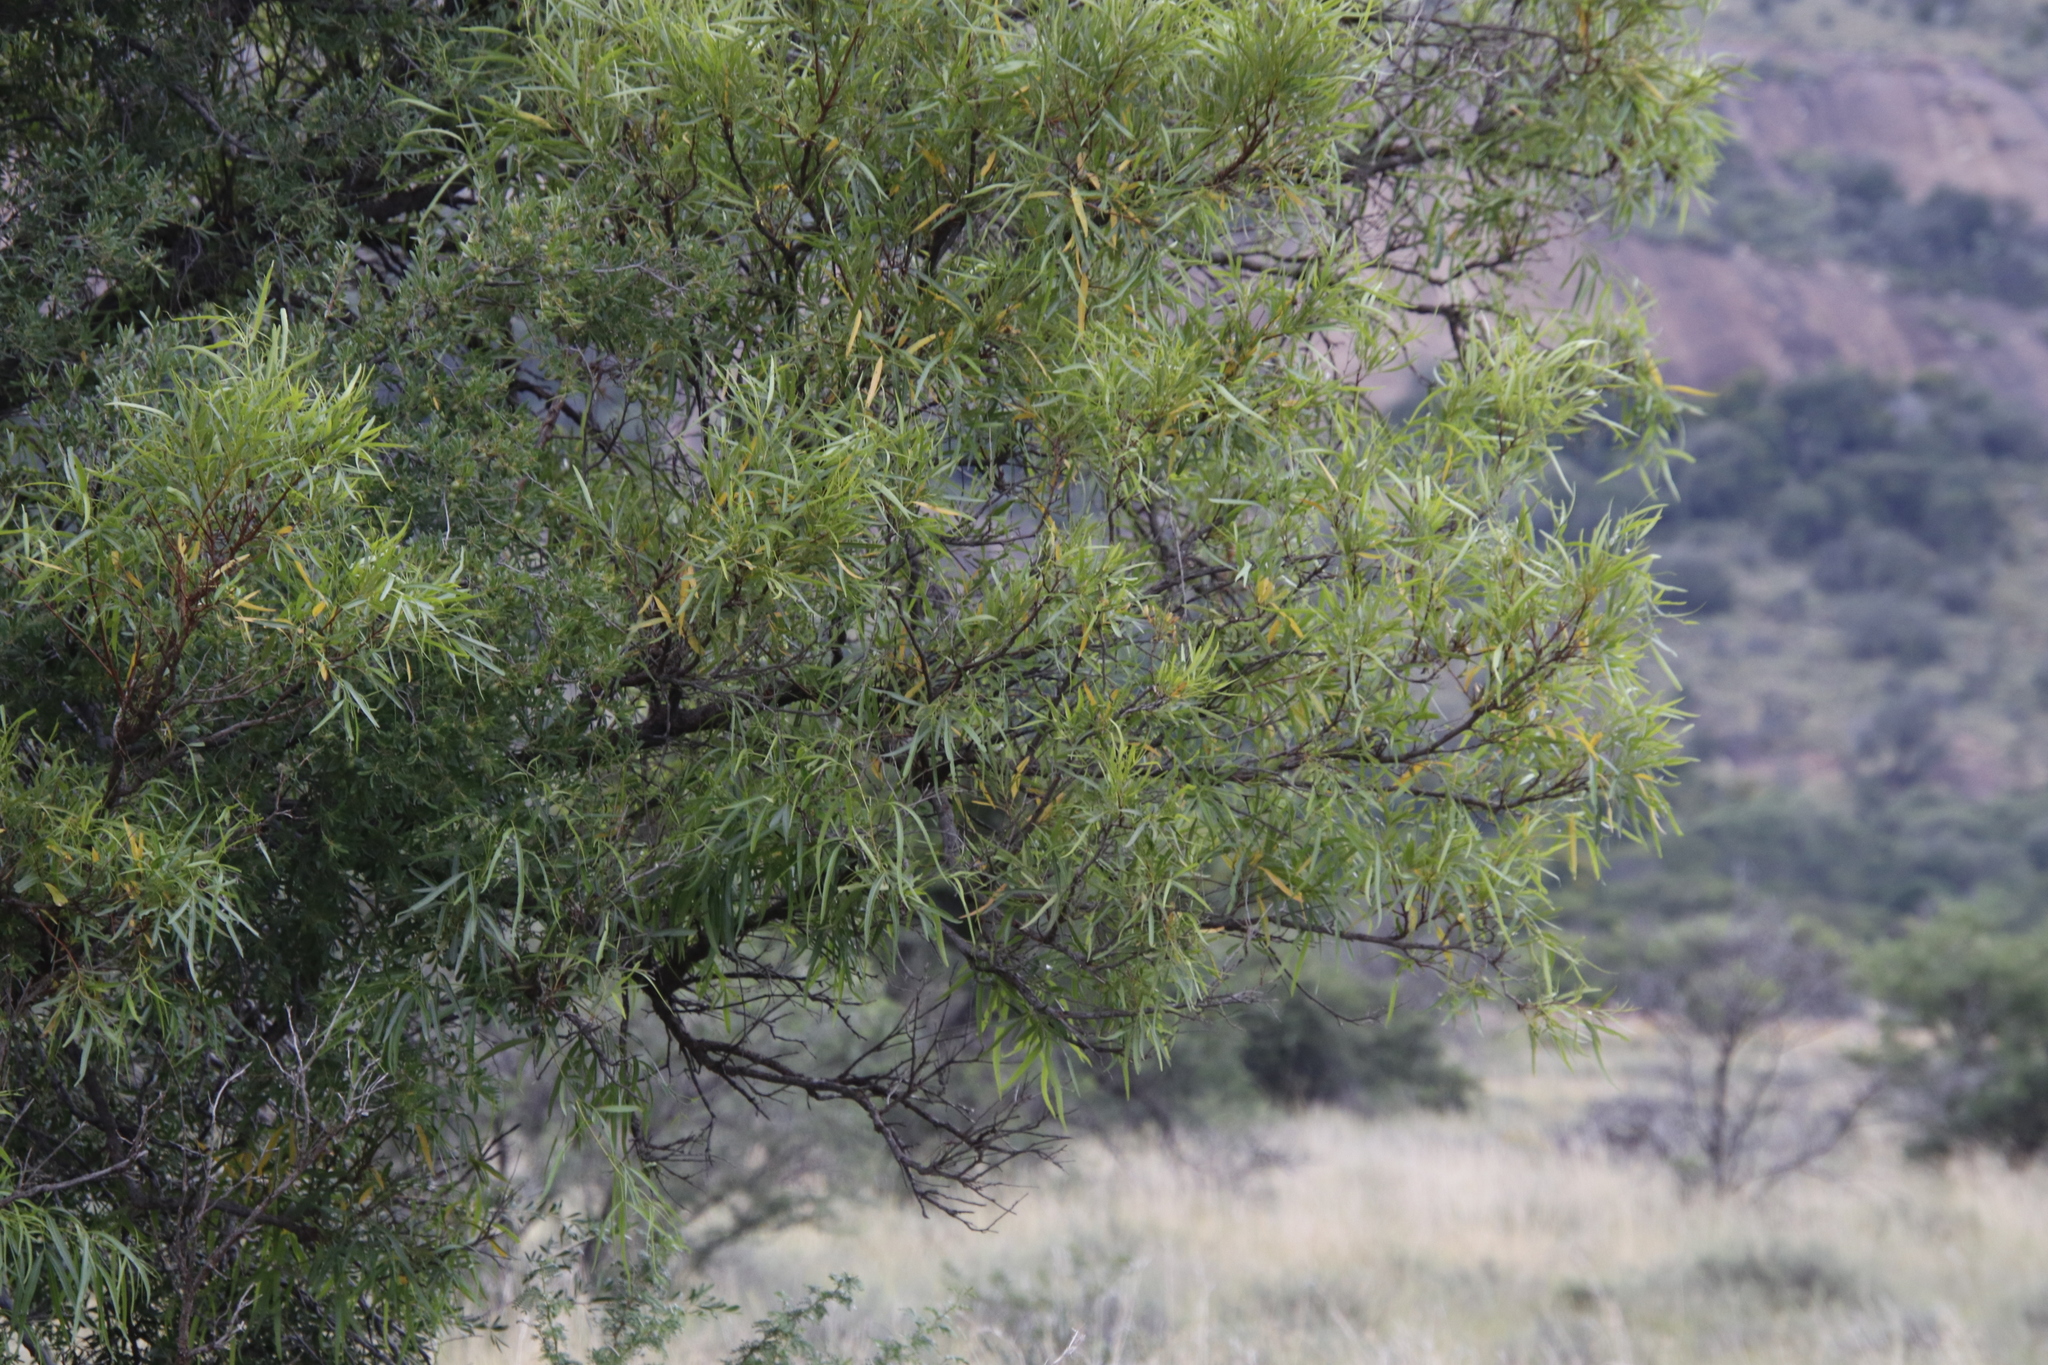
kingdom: Plantae
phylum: Tracheophyta
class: Magnoliopsida
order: Sapindales
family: Anacardiaceae
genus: Searsia
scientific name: Searsia lancea
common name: Cashew
